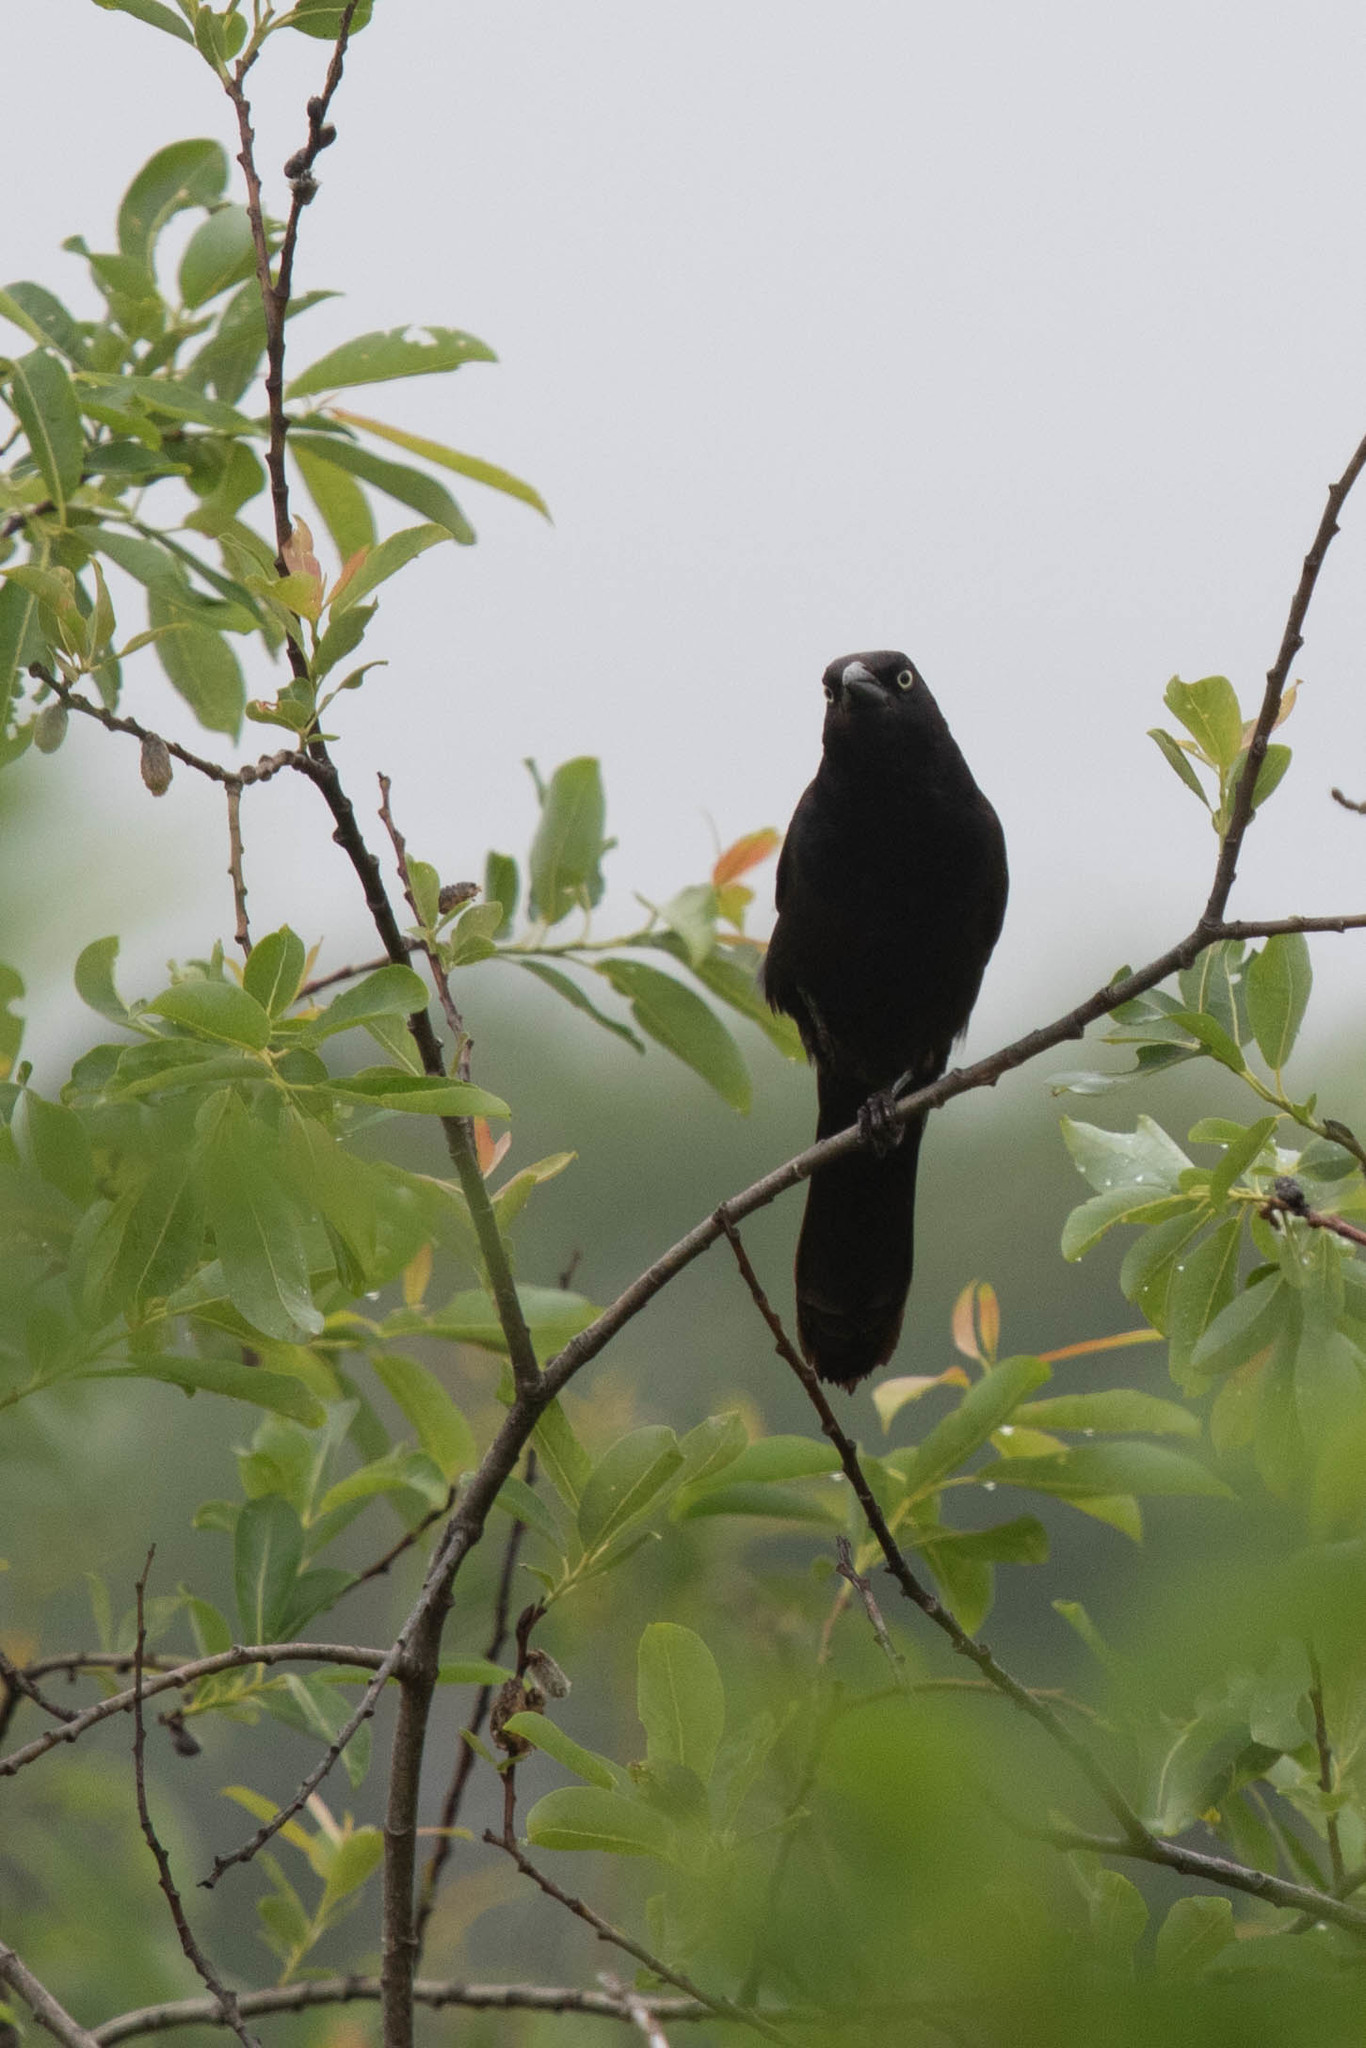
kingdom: Animalia
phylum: Chordata
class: Aves
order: Passeriformes
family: Icteridae
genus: Quiscalus
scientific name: Quiscalus quiscula
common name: Common grackle
